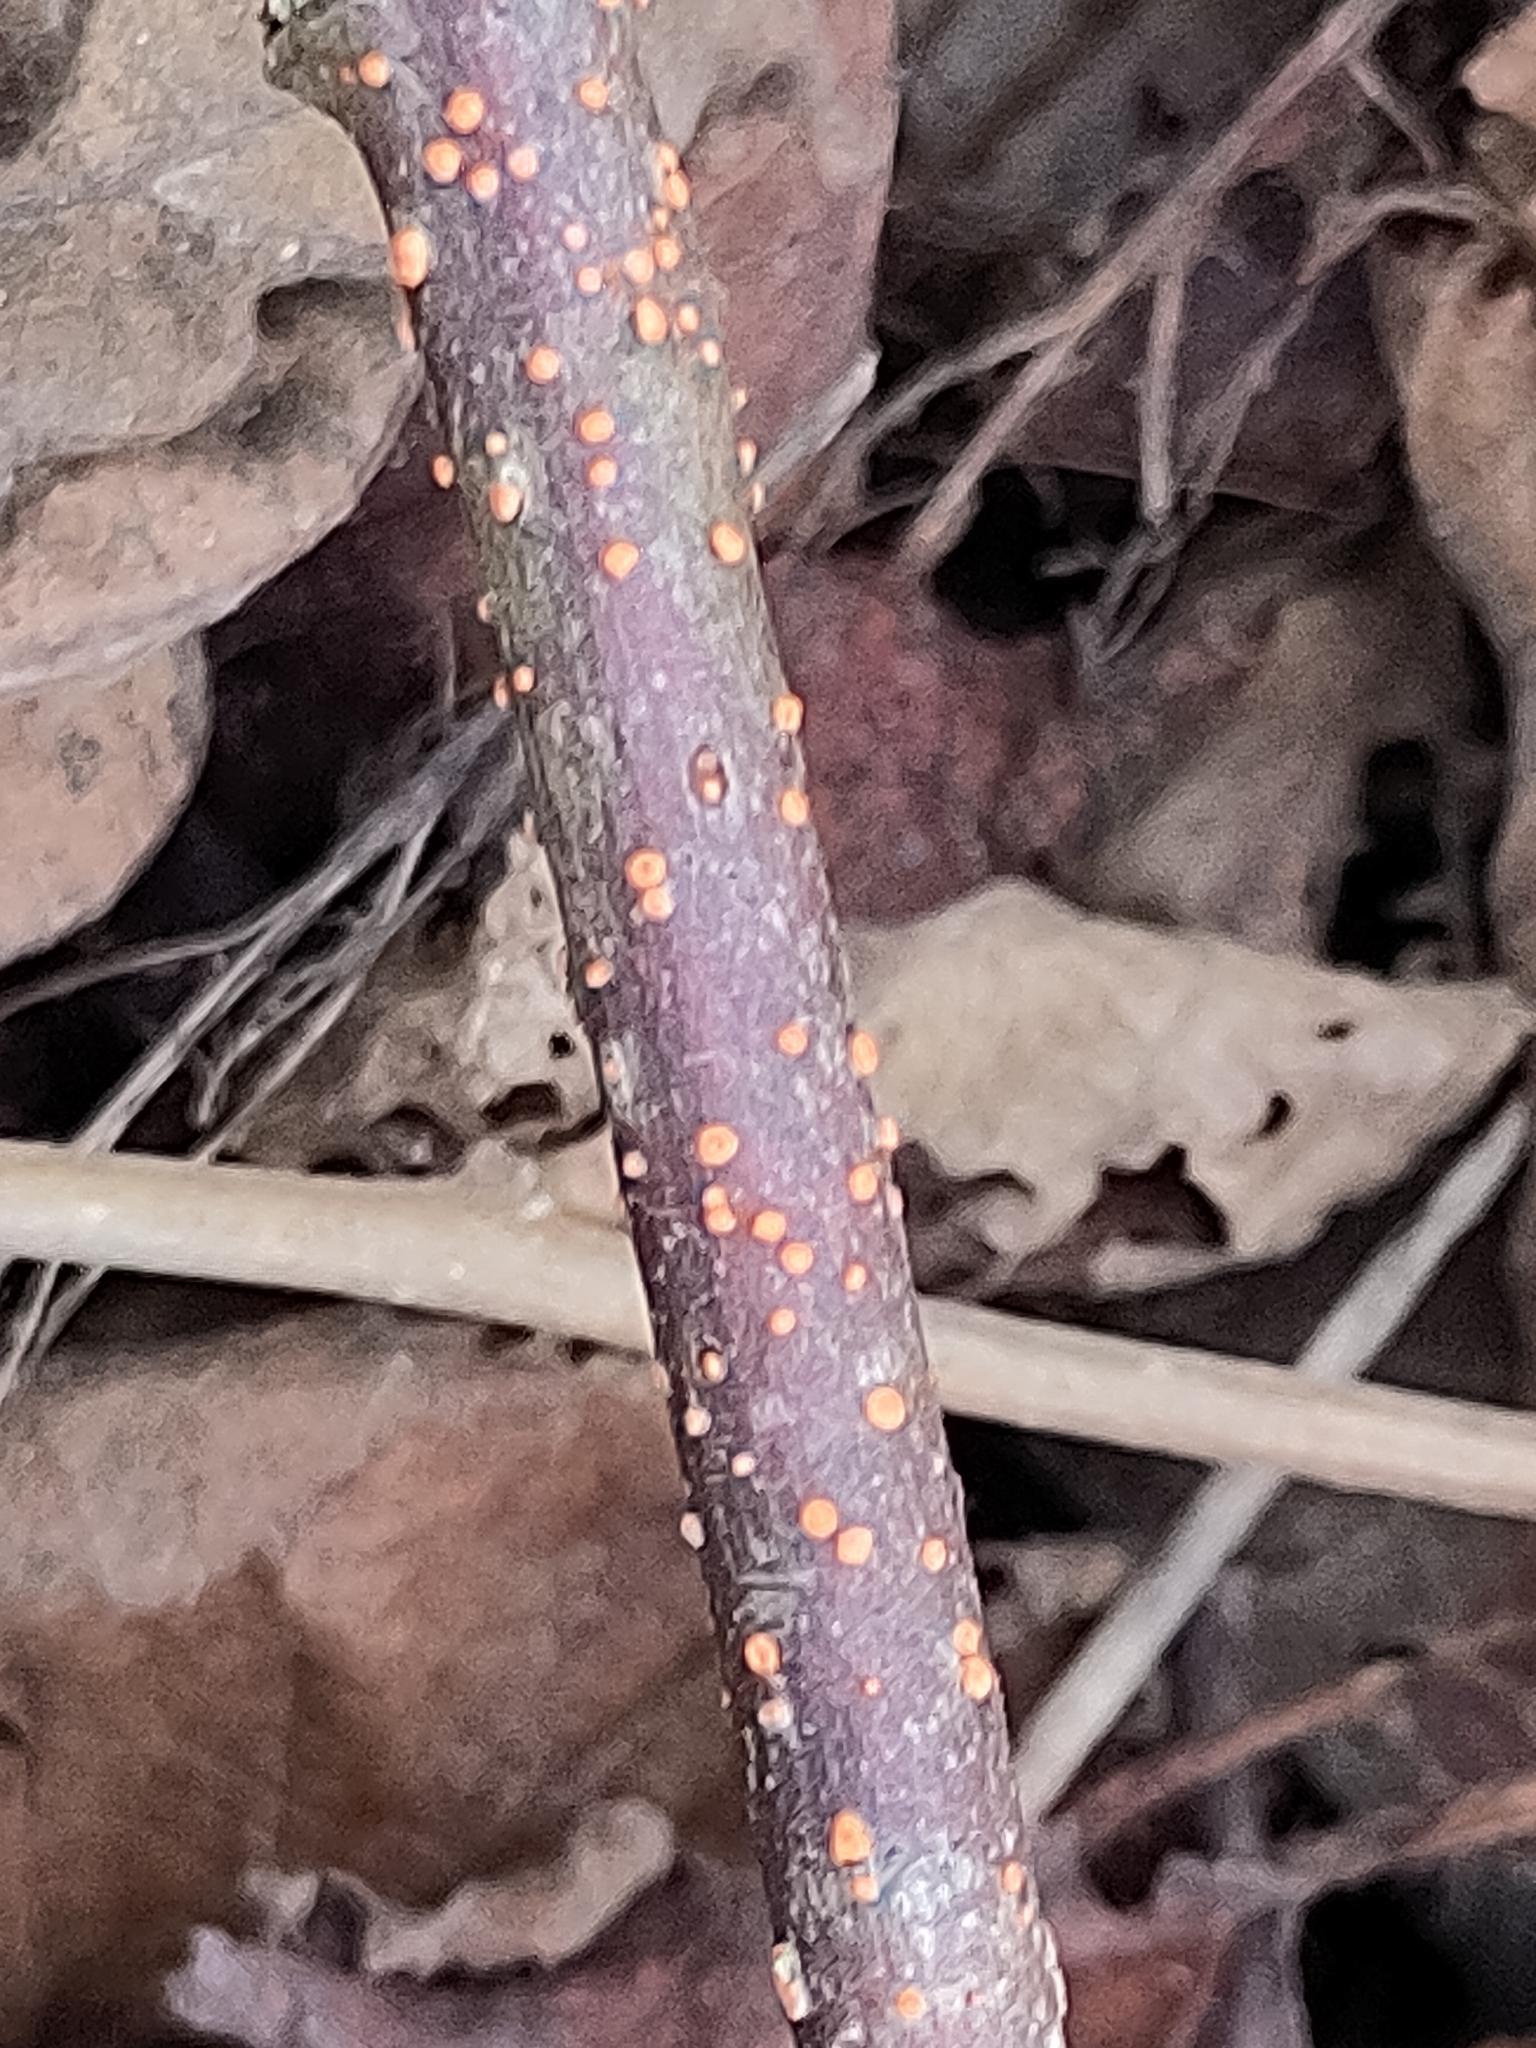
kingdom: Fungi
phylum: Ascomycota
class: Sordariomycetes
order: Hypocreales
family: Nectriaceae
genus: Nectria
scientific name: Nectria cinnabarina
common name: Coral spot
